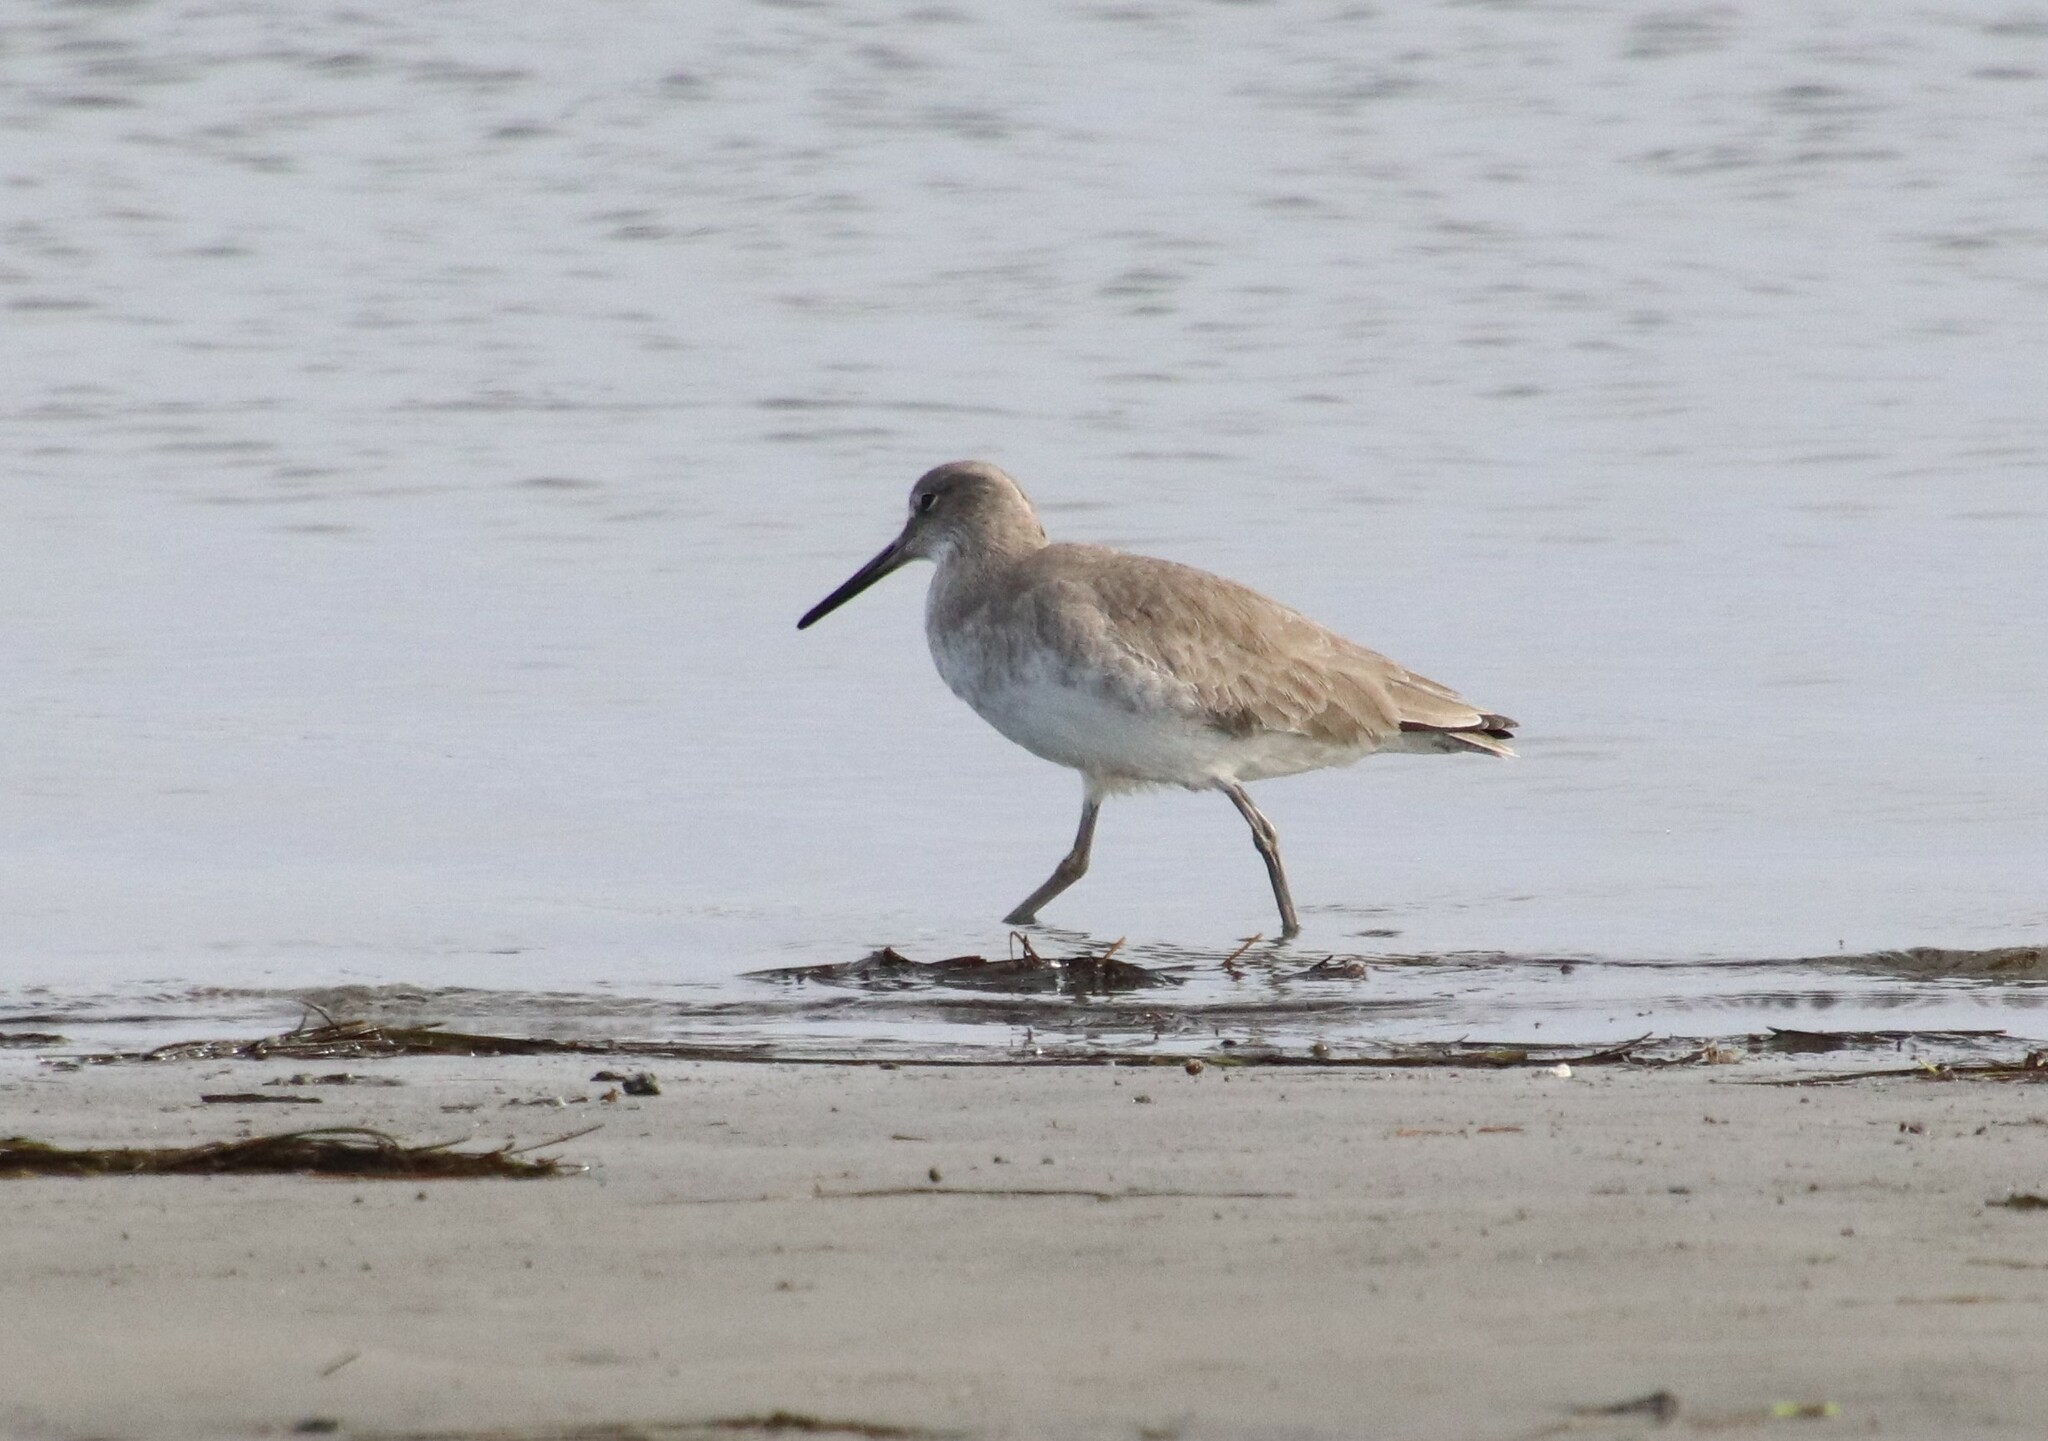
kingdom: Animalia
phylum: Chordata
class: Aves
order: Charadriiformes
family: Scolopacidae
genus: Tringa
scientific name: Tringa semipalmata
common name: Willet
